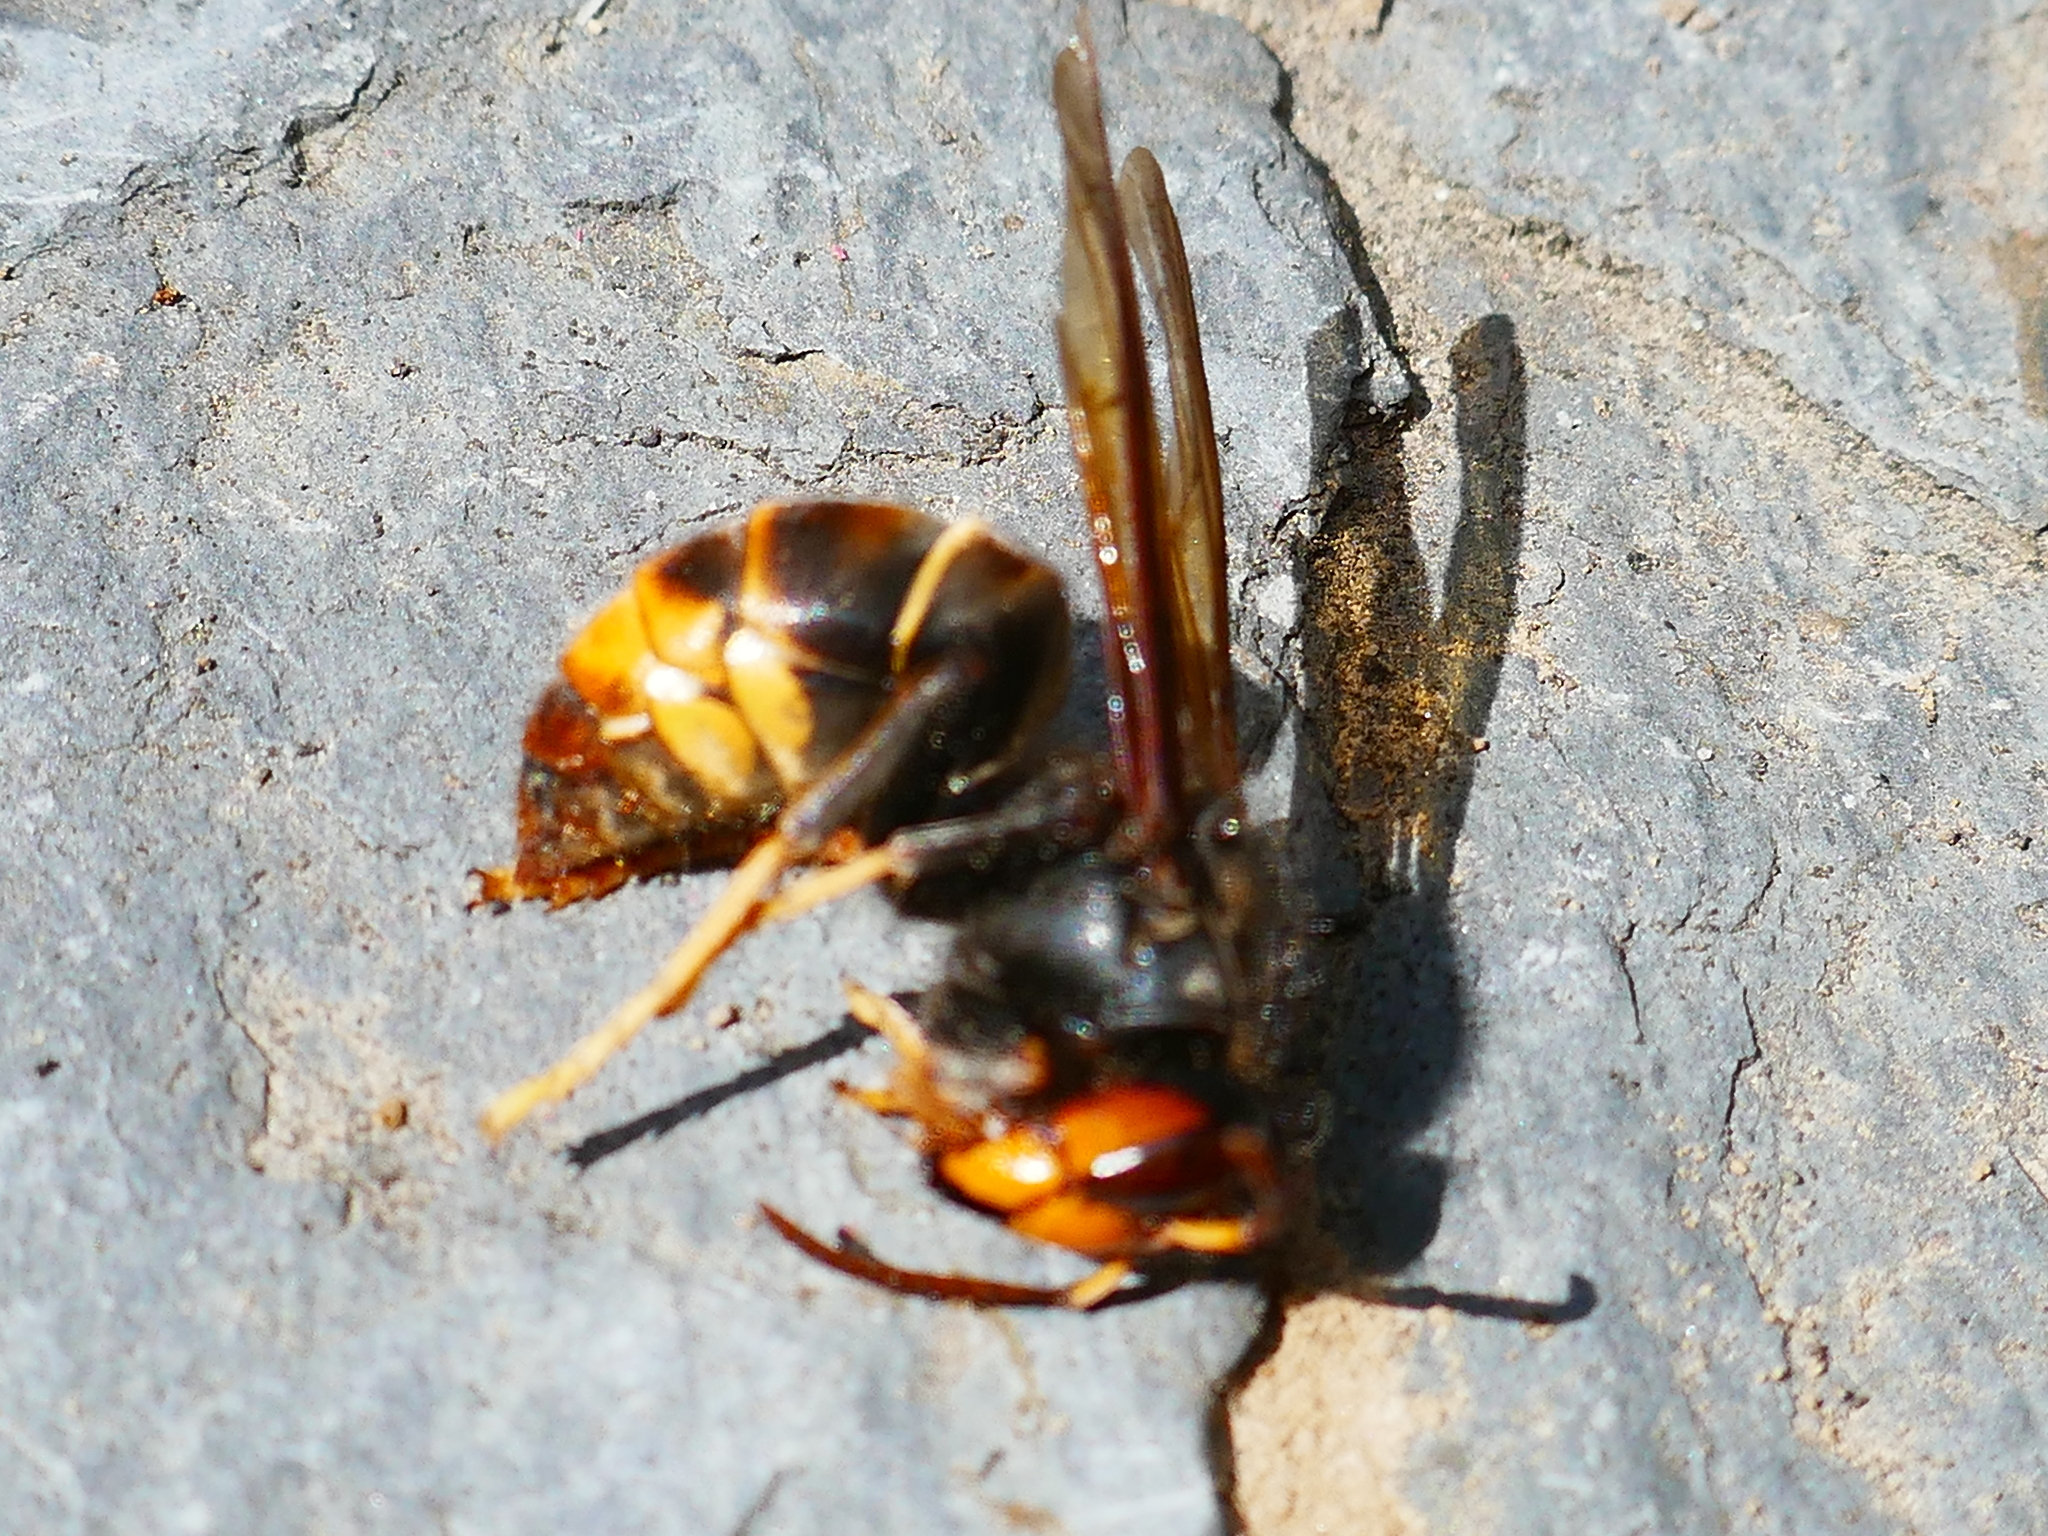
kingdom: Animalia
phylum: Arthropoda
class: Insecta
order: Hymenoptera
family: Vespidae
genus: Vespa
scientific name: Vespa velutina
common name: Asian hornet
